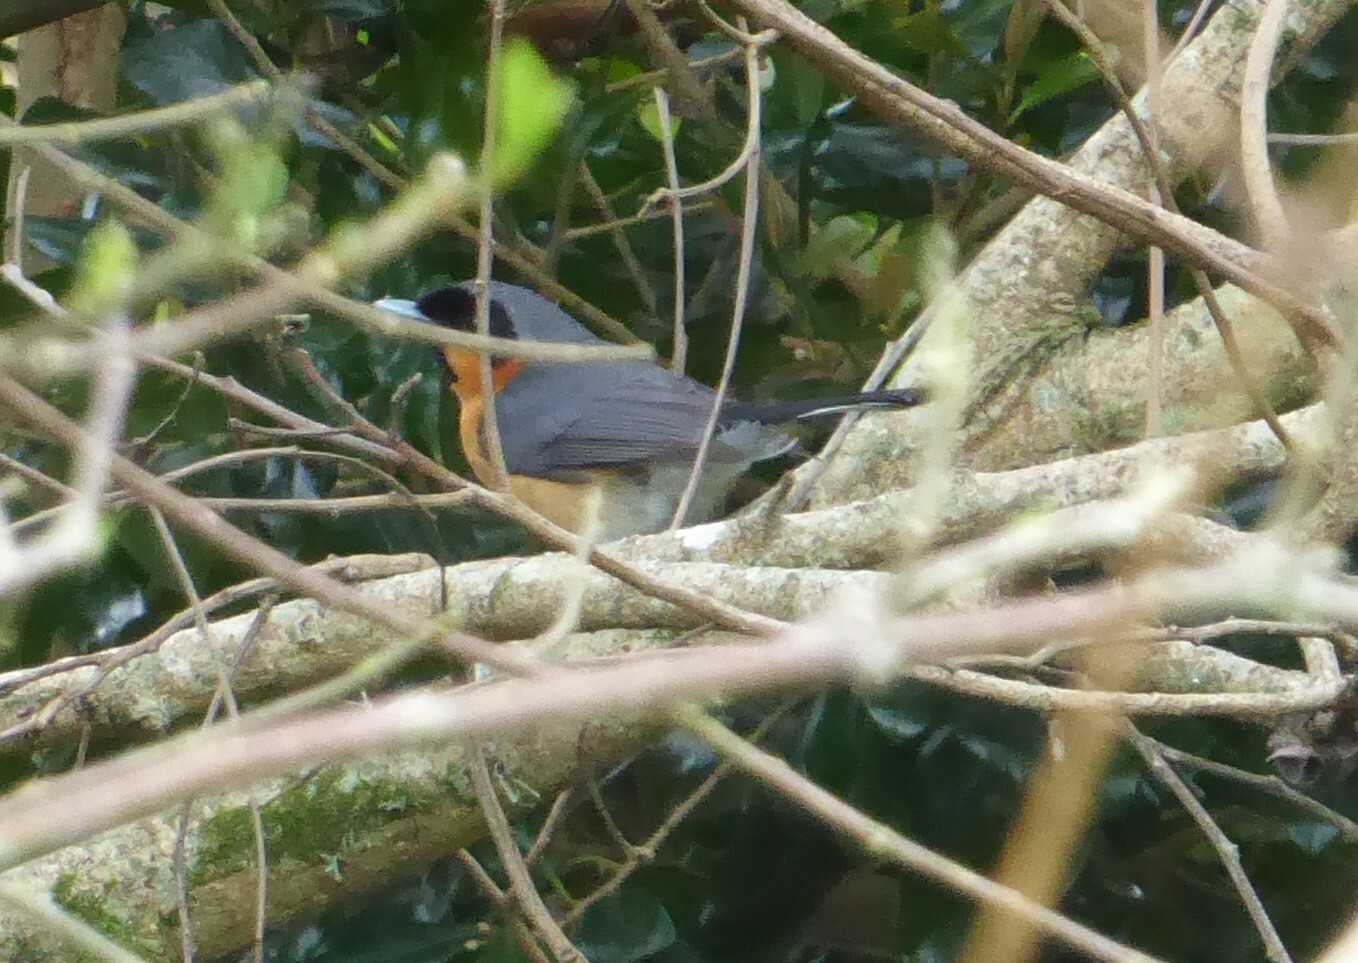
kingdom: Animalia
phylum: Chordata
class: Aves
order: Passeriformes
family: Monarchidae
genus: Symposiachrus
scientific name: Symposiachrus trivirgatus
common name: Spectacled monarch
